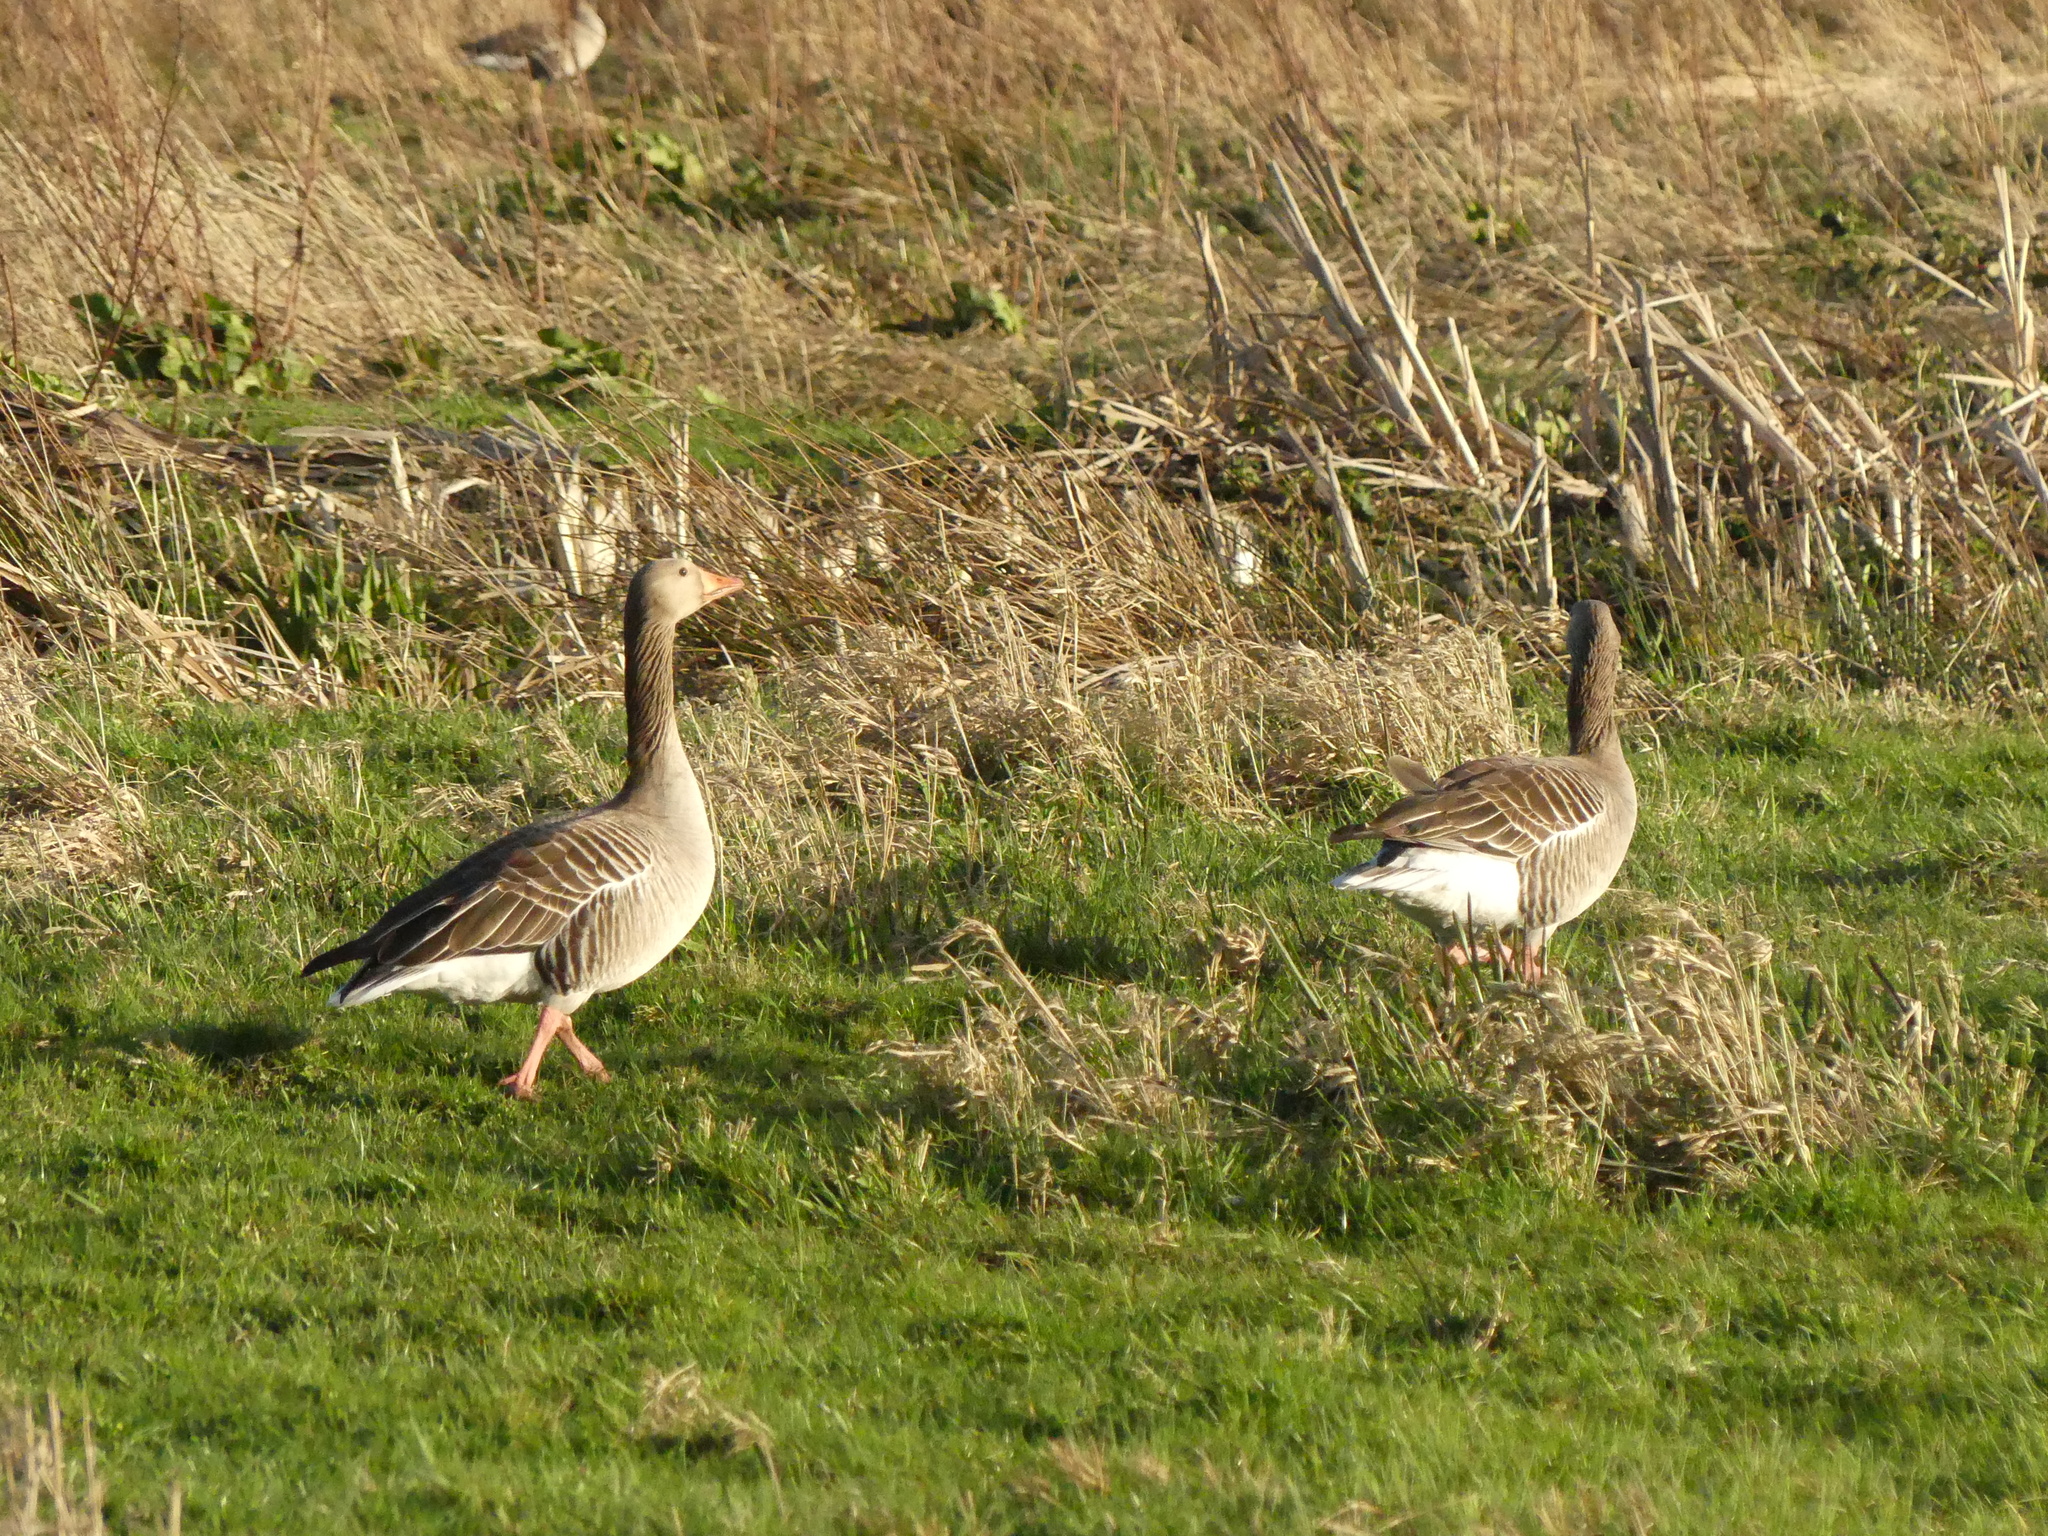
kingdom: Animalia
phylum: Chordata
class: Aves
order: Anseriformes
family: Anatidae
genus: Anser
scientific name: Anser anser
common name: Greylag goose
